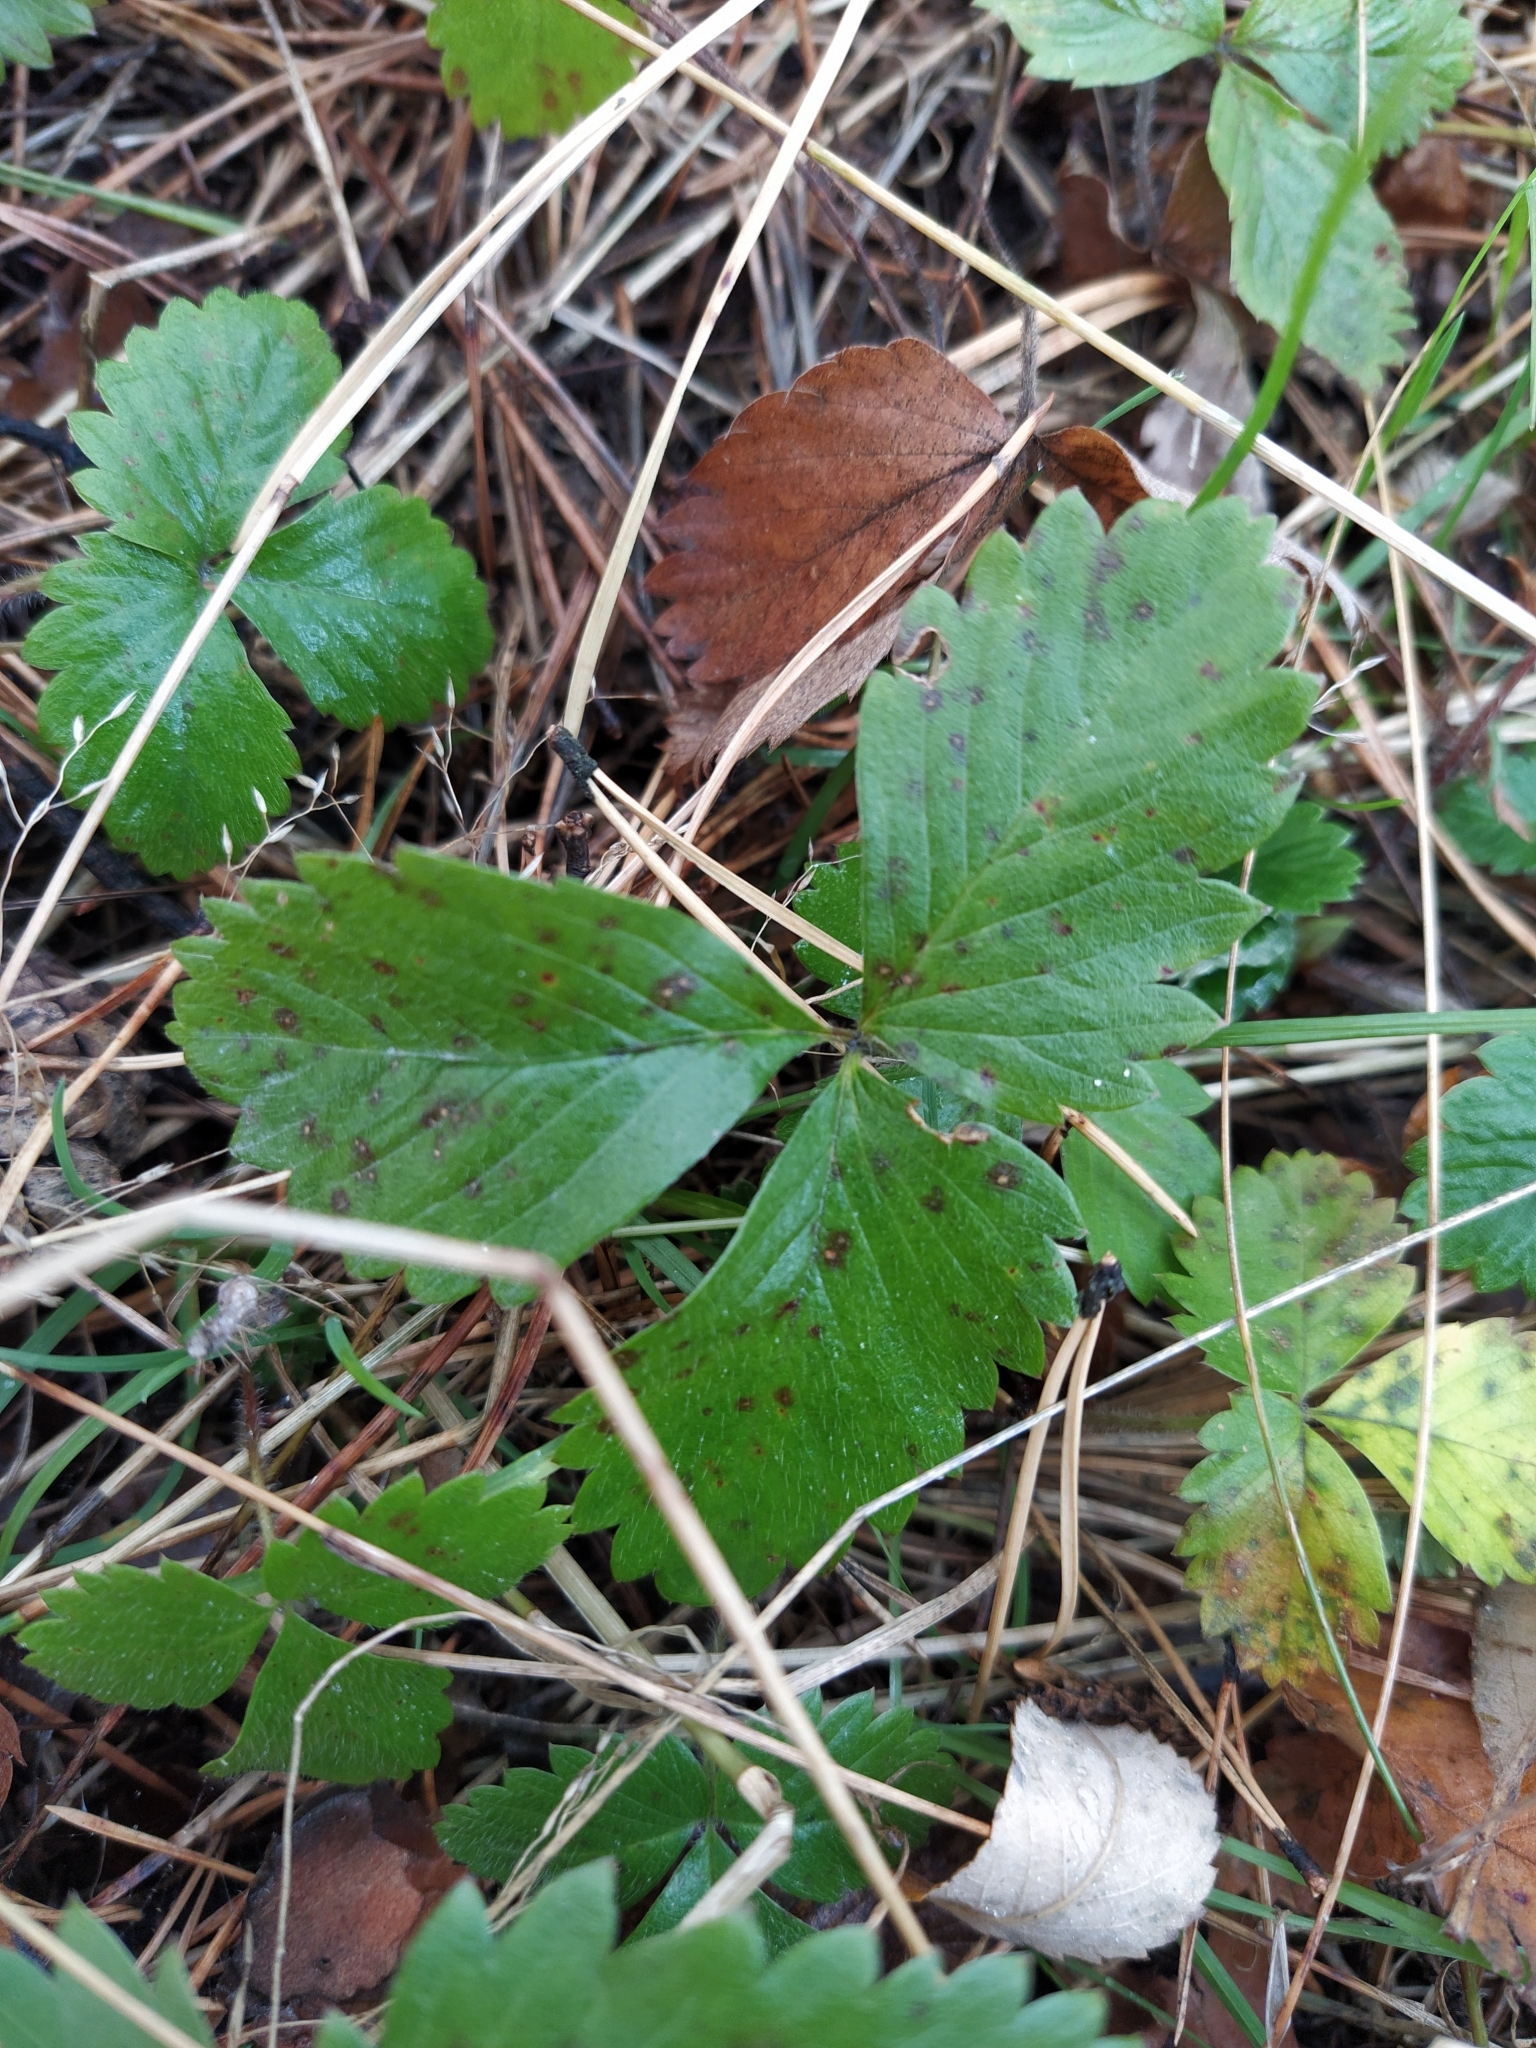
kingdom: Plantae
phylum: Tracheophyta
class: Magnoliopsida
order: Rosales
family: Rosaceae
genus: Fragaria
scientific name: Fragaria vesca
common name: Wild strawberry
